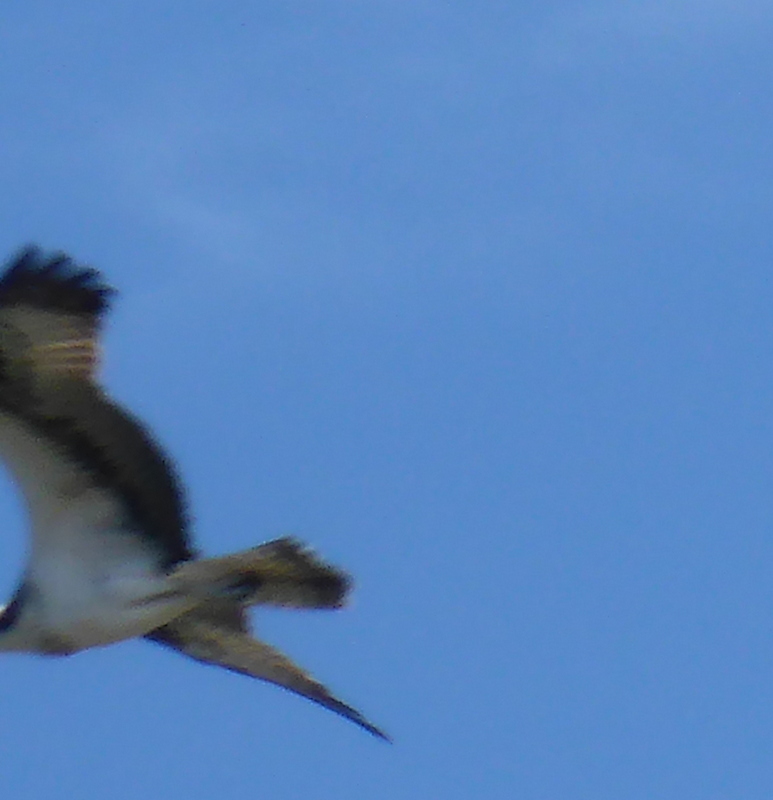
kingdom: Animalia
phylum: Chordata
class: Aves
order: Accipitriformes
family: Pandionidae
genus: Pandion
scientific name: Pandion haliaetus
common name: Osprey
